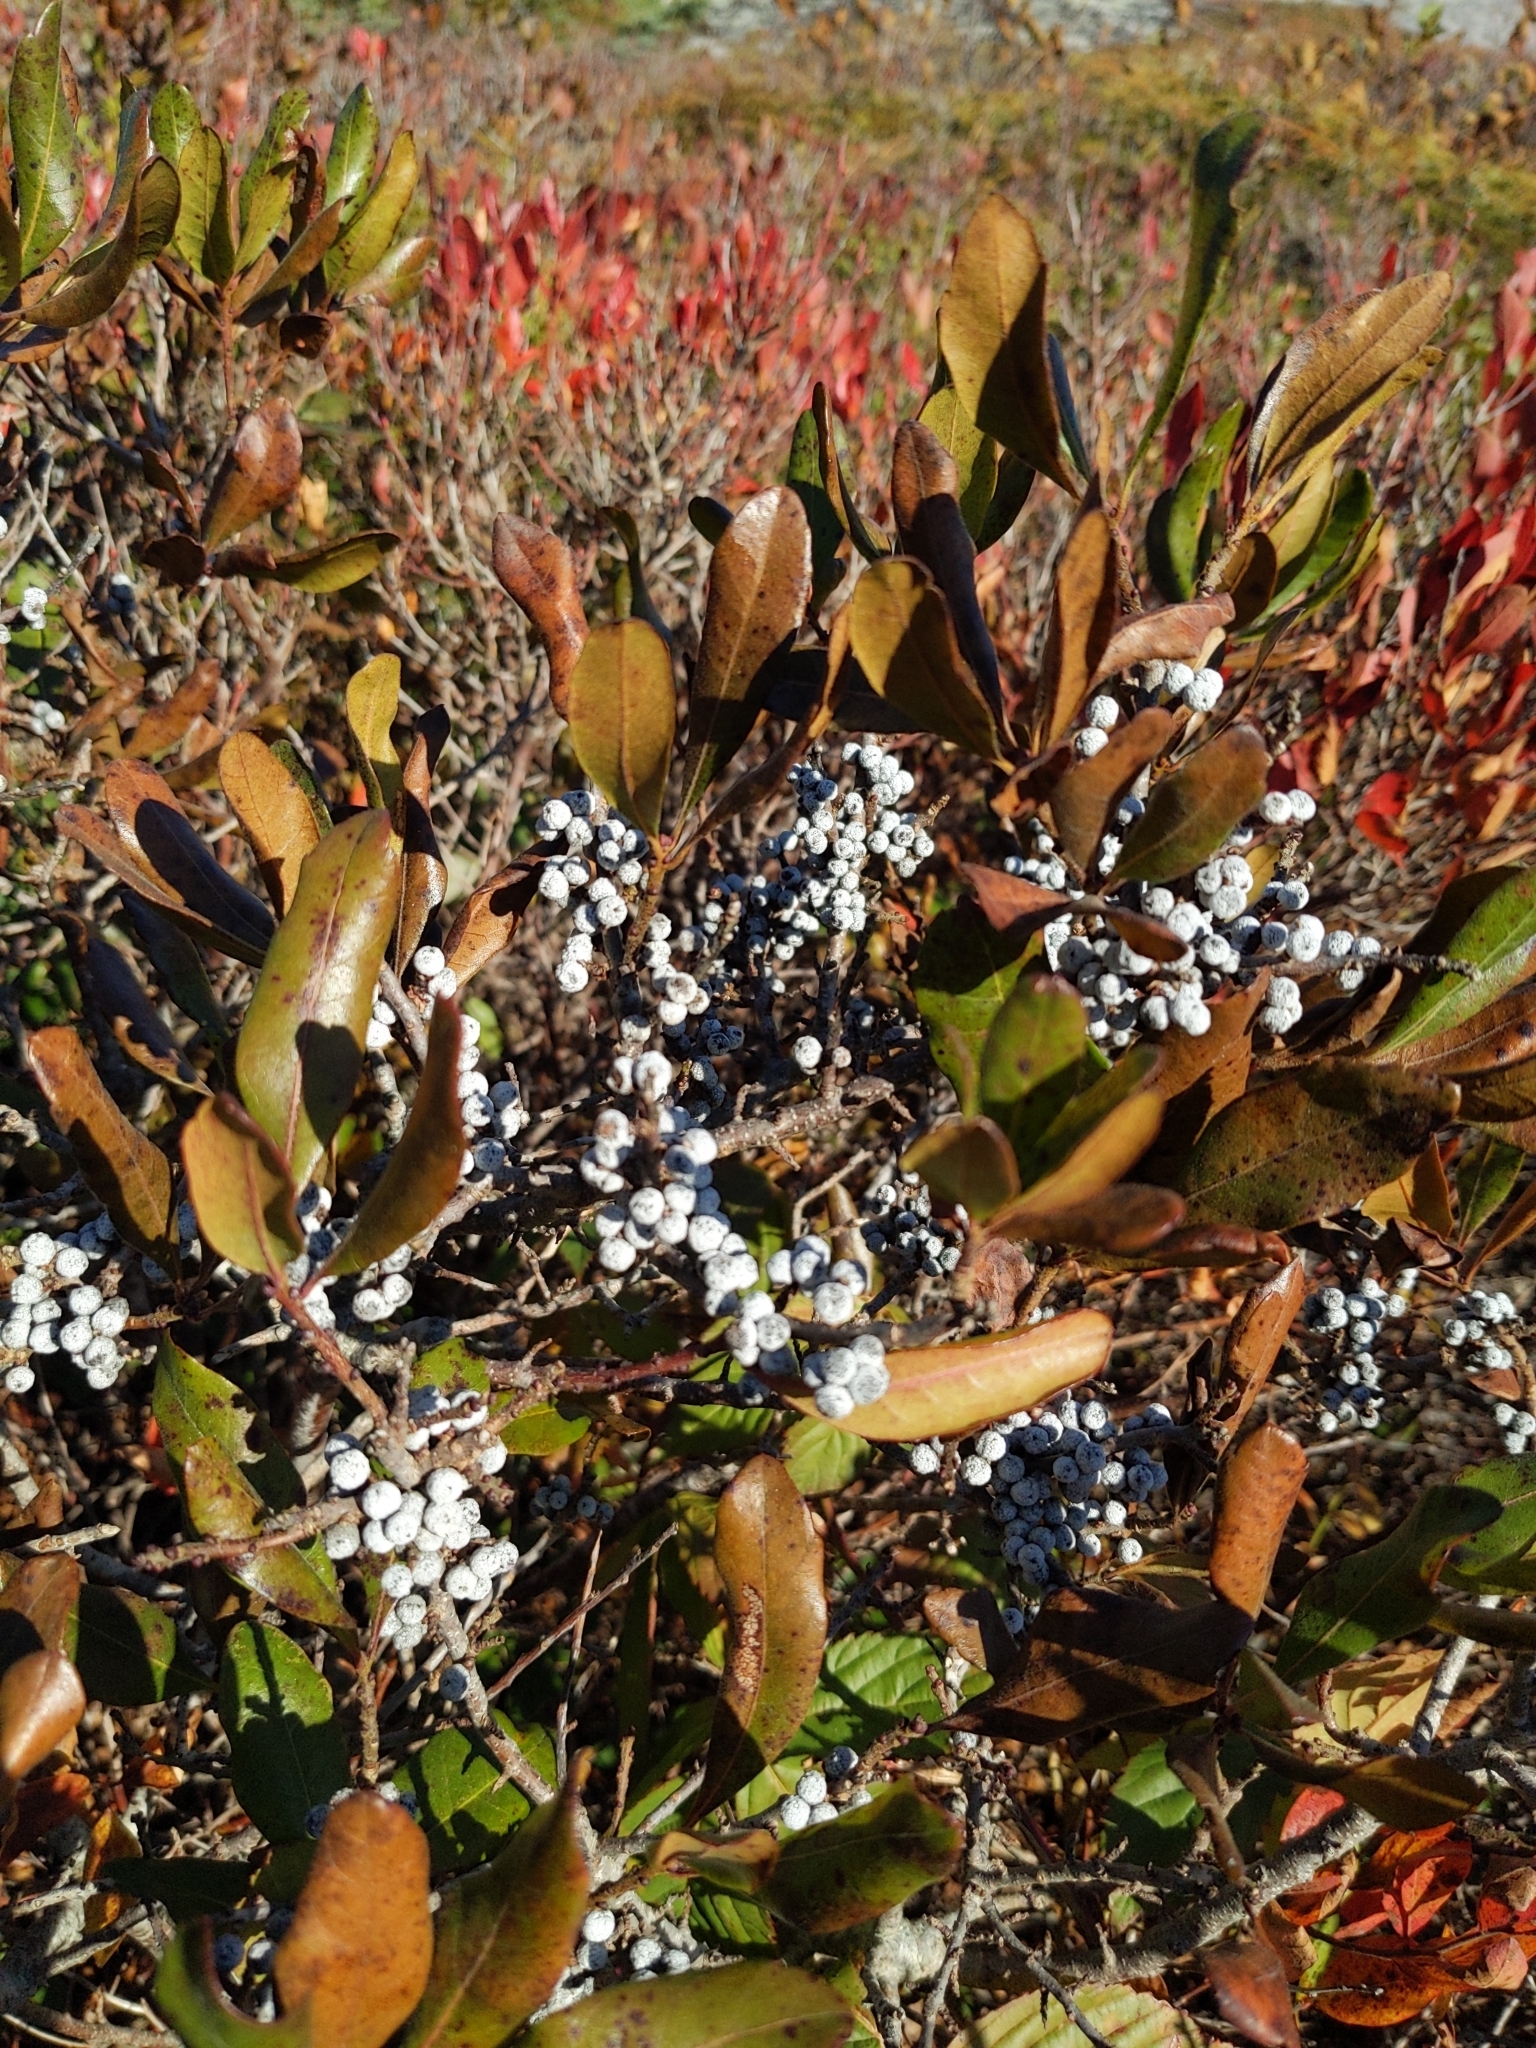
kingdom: Plantae
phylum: Tracheophyta
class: Magnoliopsida
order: Fagales
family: Myricaceae
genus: Morella
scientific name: Morella pensylvanica
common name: Northern bayberry
